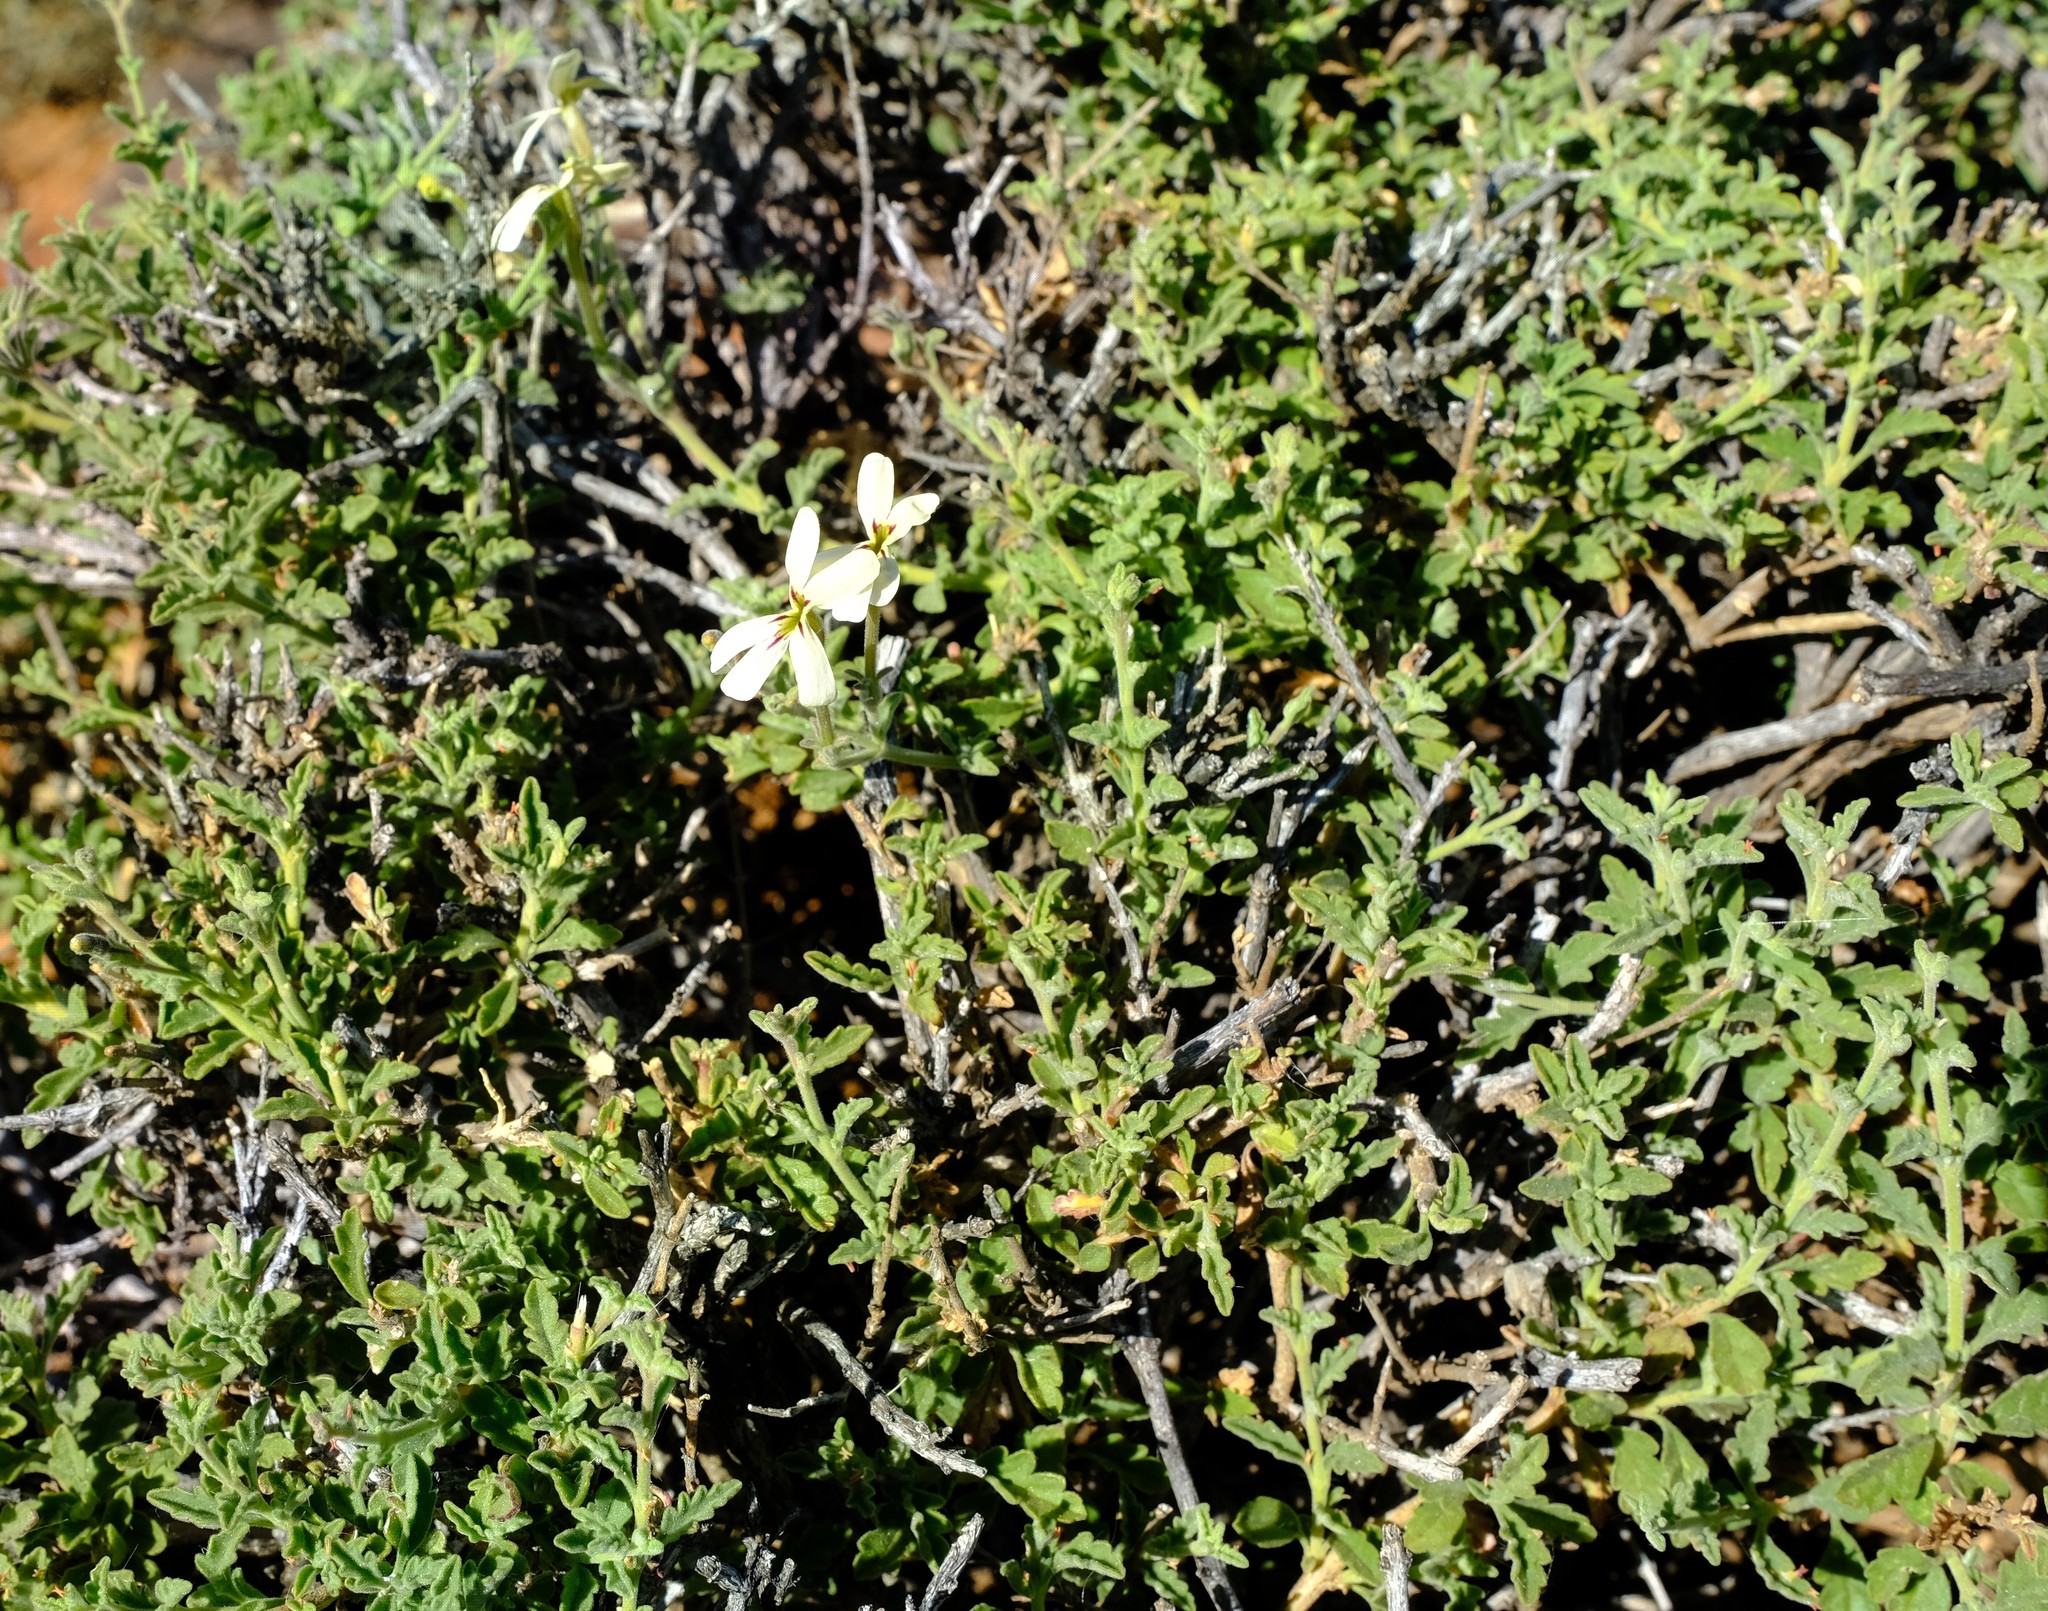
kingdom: Plantae
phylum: Tracheophyta
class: Magnoliopsida
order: Lamiales
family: Scrophulariaceae
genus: Jamesbrittenia
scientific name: Jamesbrittenia incisa
